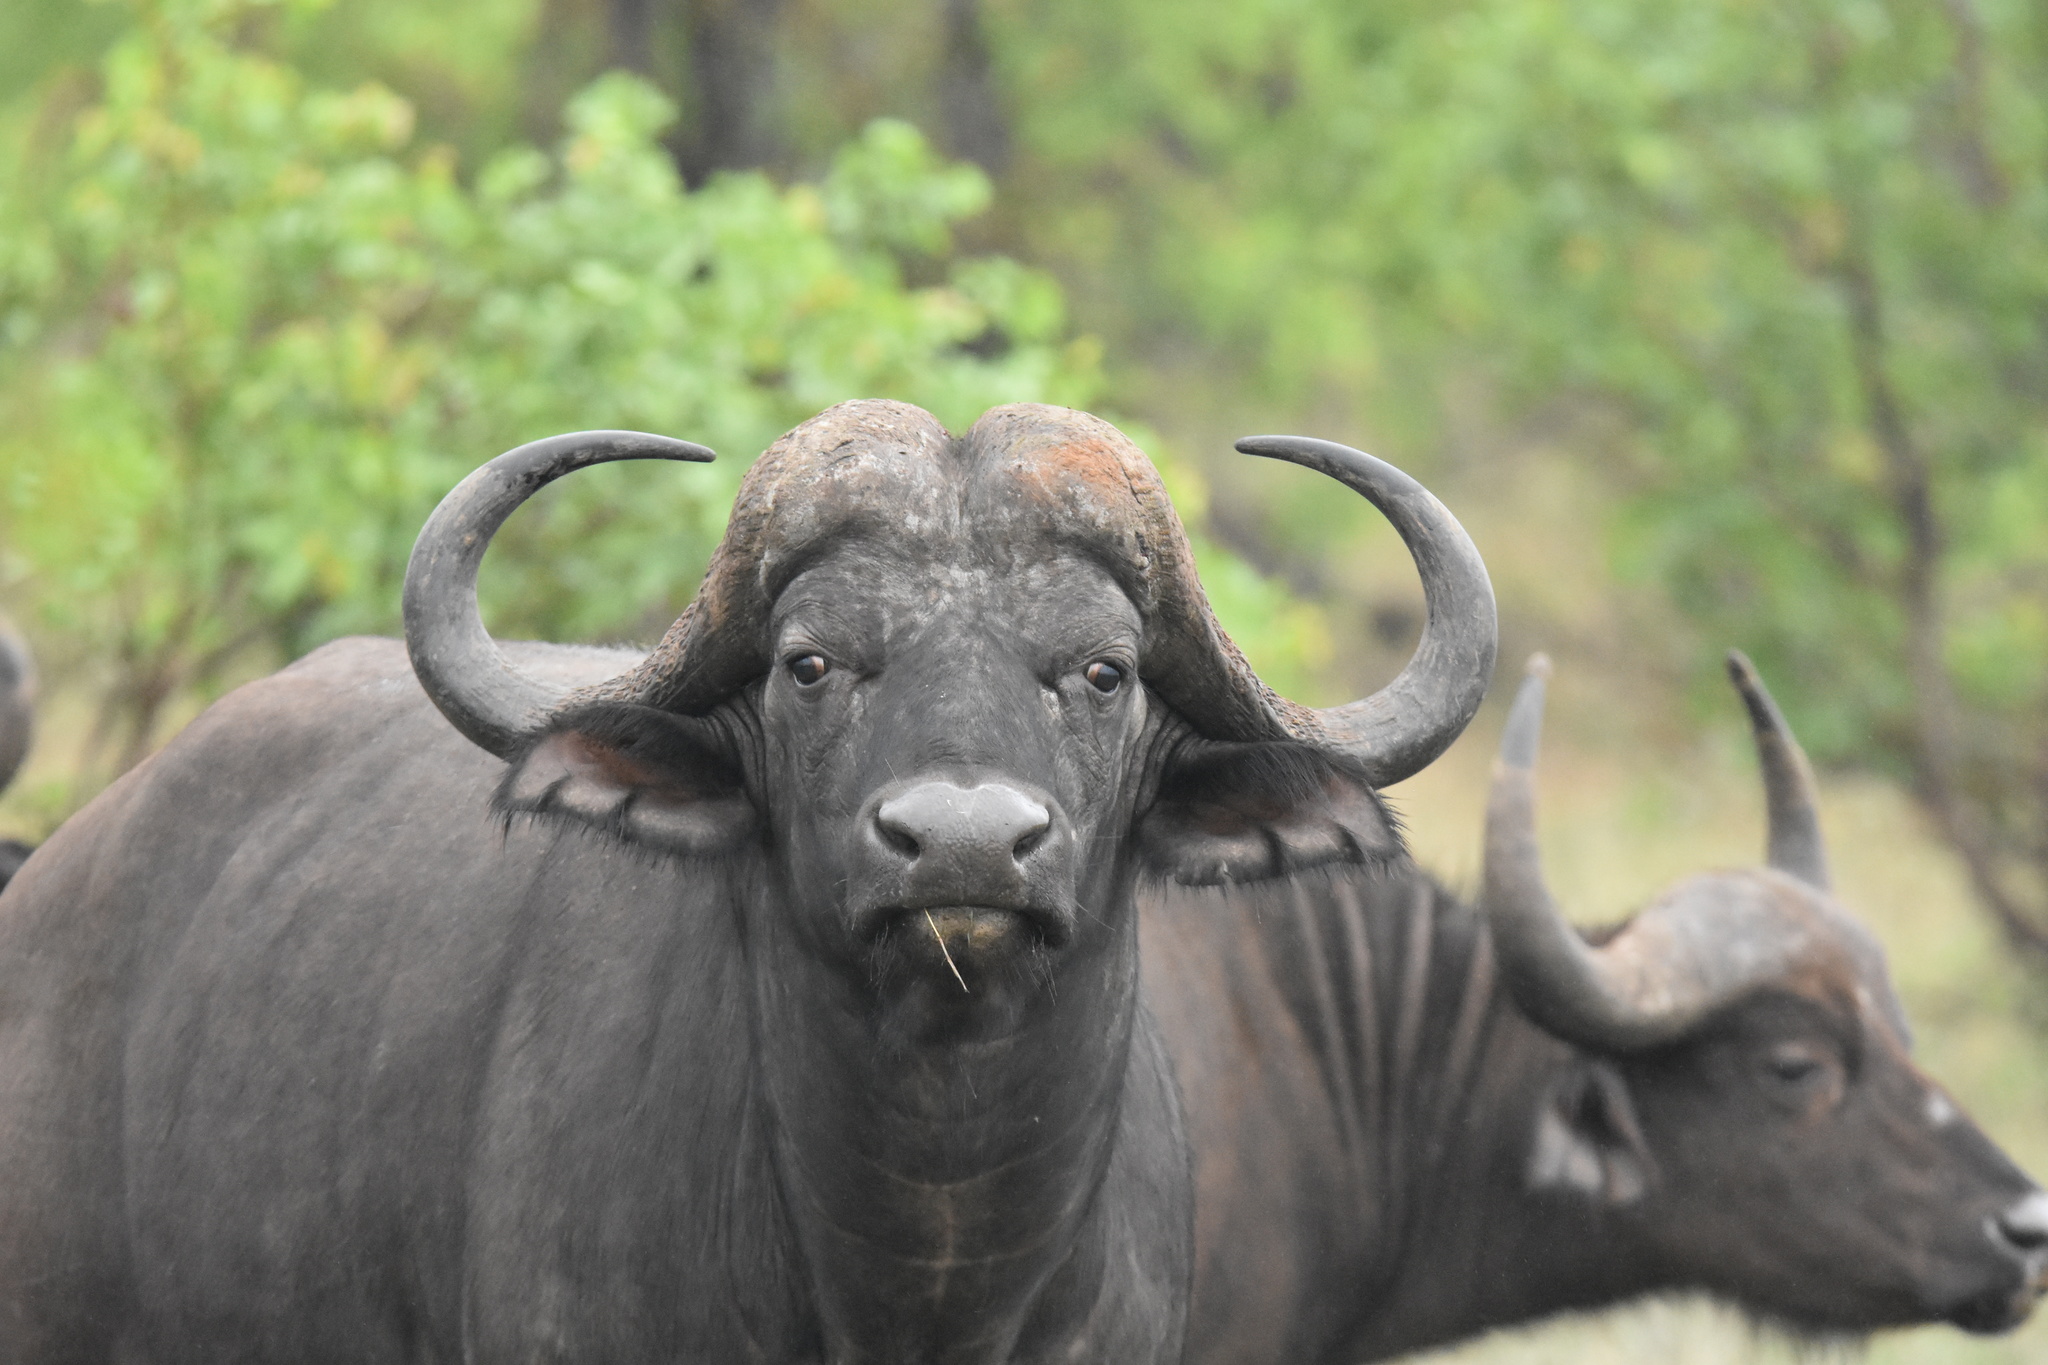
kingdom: Animalia
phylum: Chordata
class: Mammalia
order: Artiodactyla
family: Bovidae
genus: Syncerus
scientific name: Syncerus caffer
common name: African buffalo
